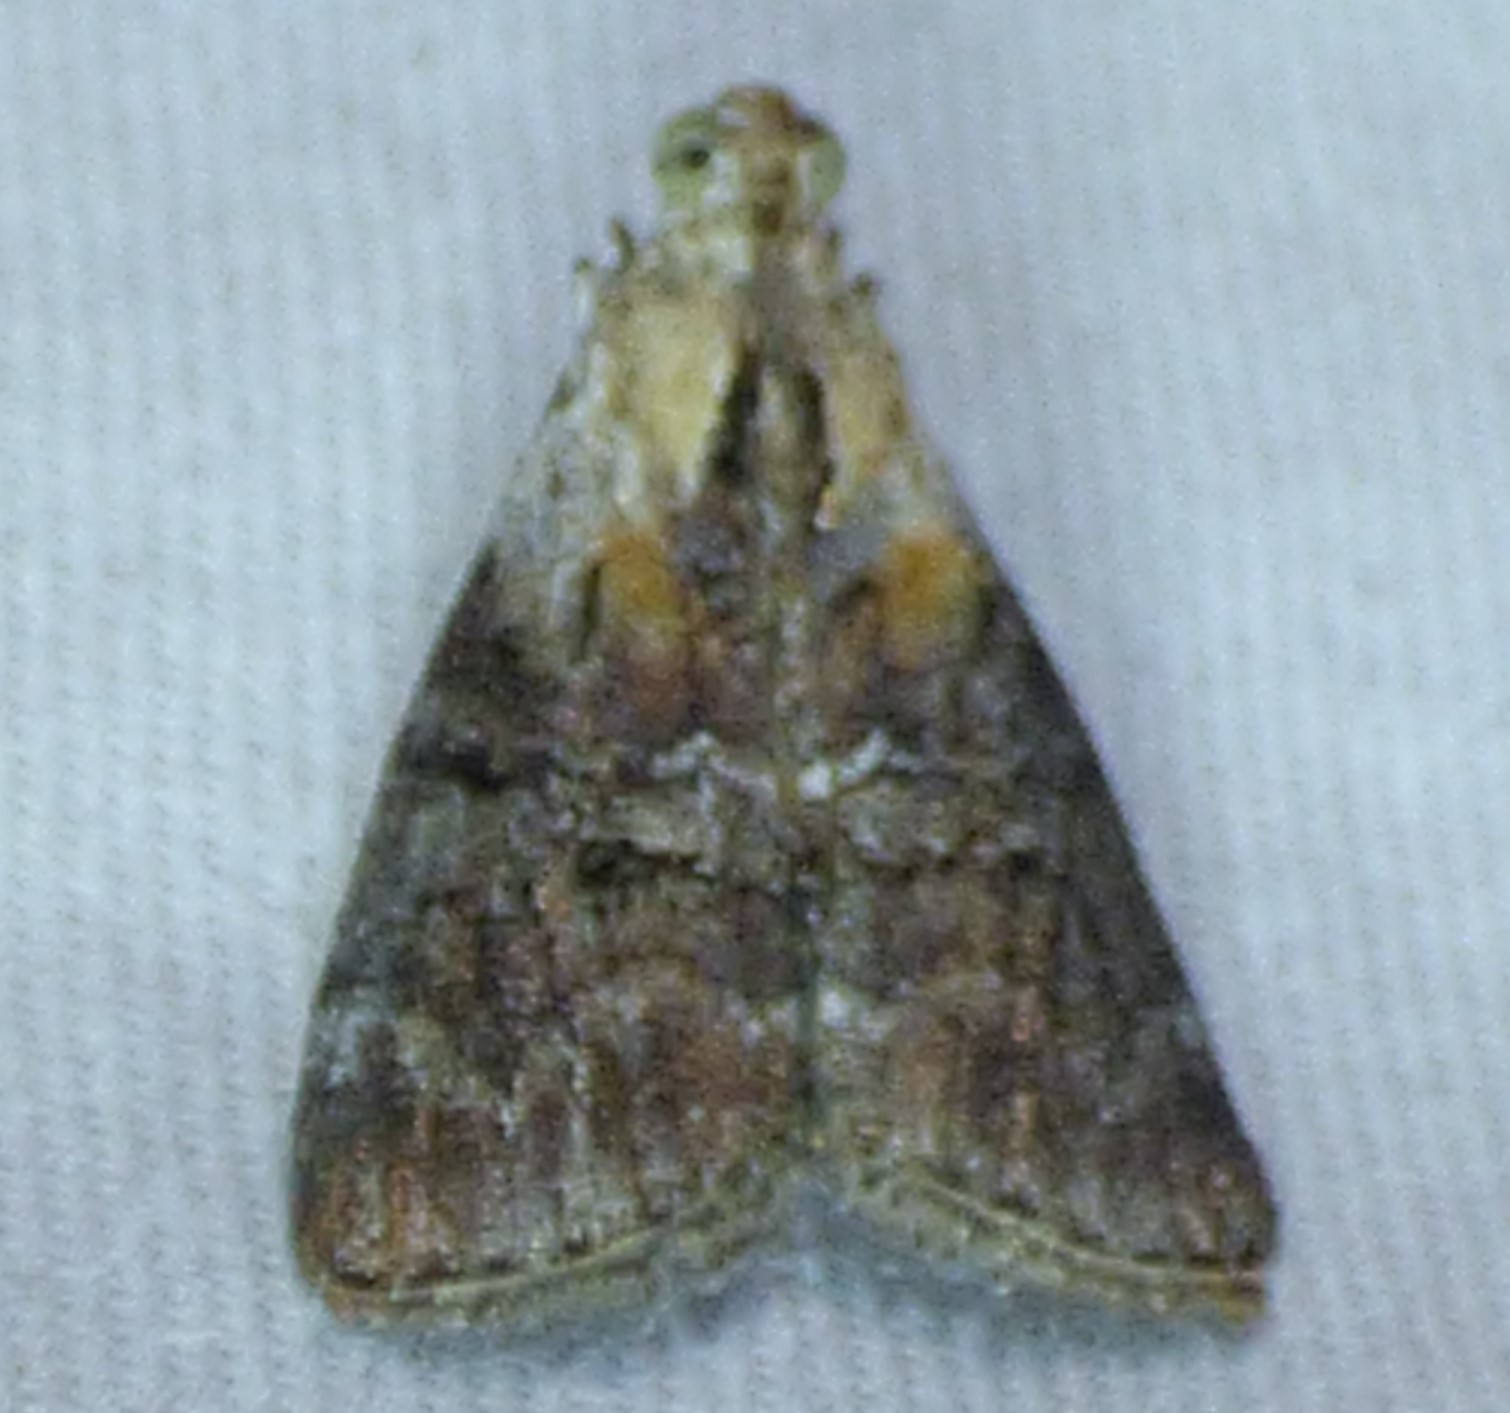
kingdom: Animalia
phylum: Arthropoda
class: Insecta
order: Lepidoptera
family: Pyralidae
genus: Pococera
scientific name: Pococera expandens
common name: Striped oak webworm moth
